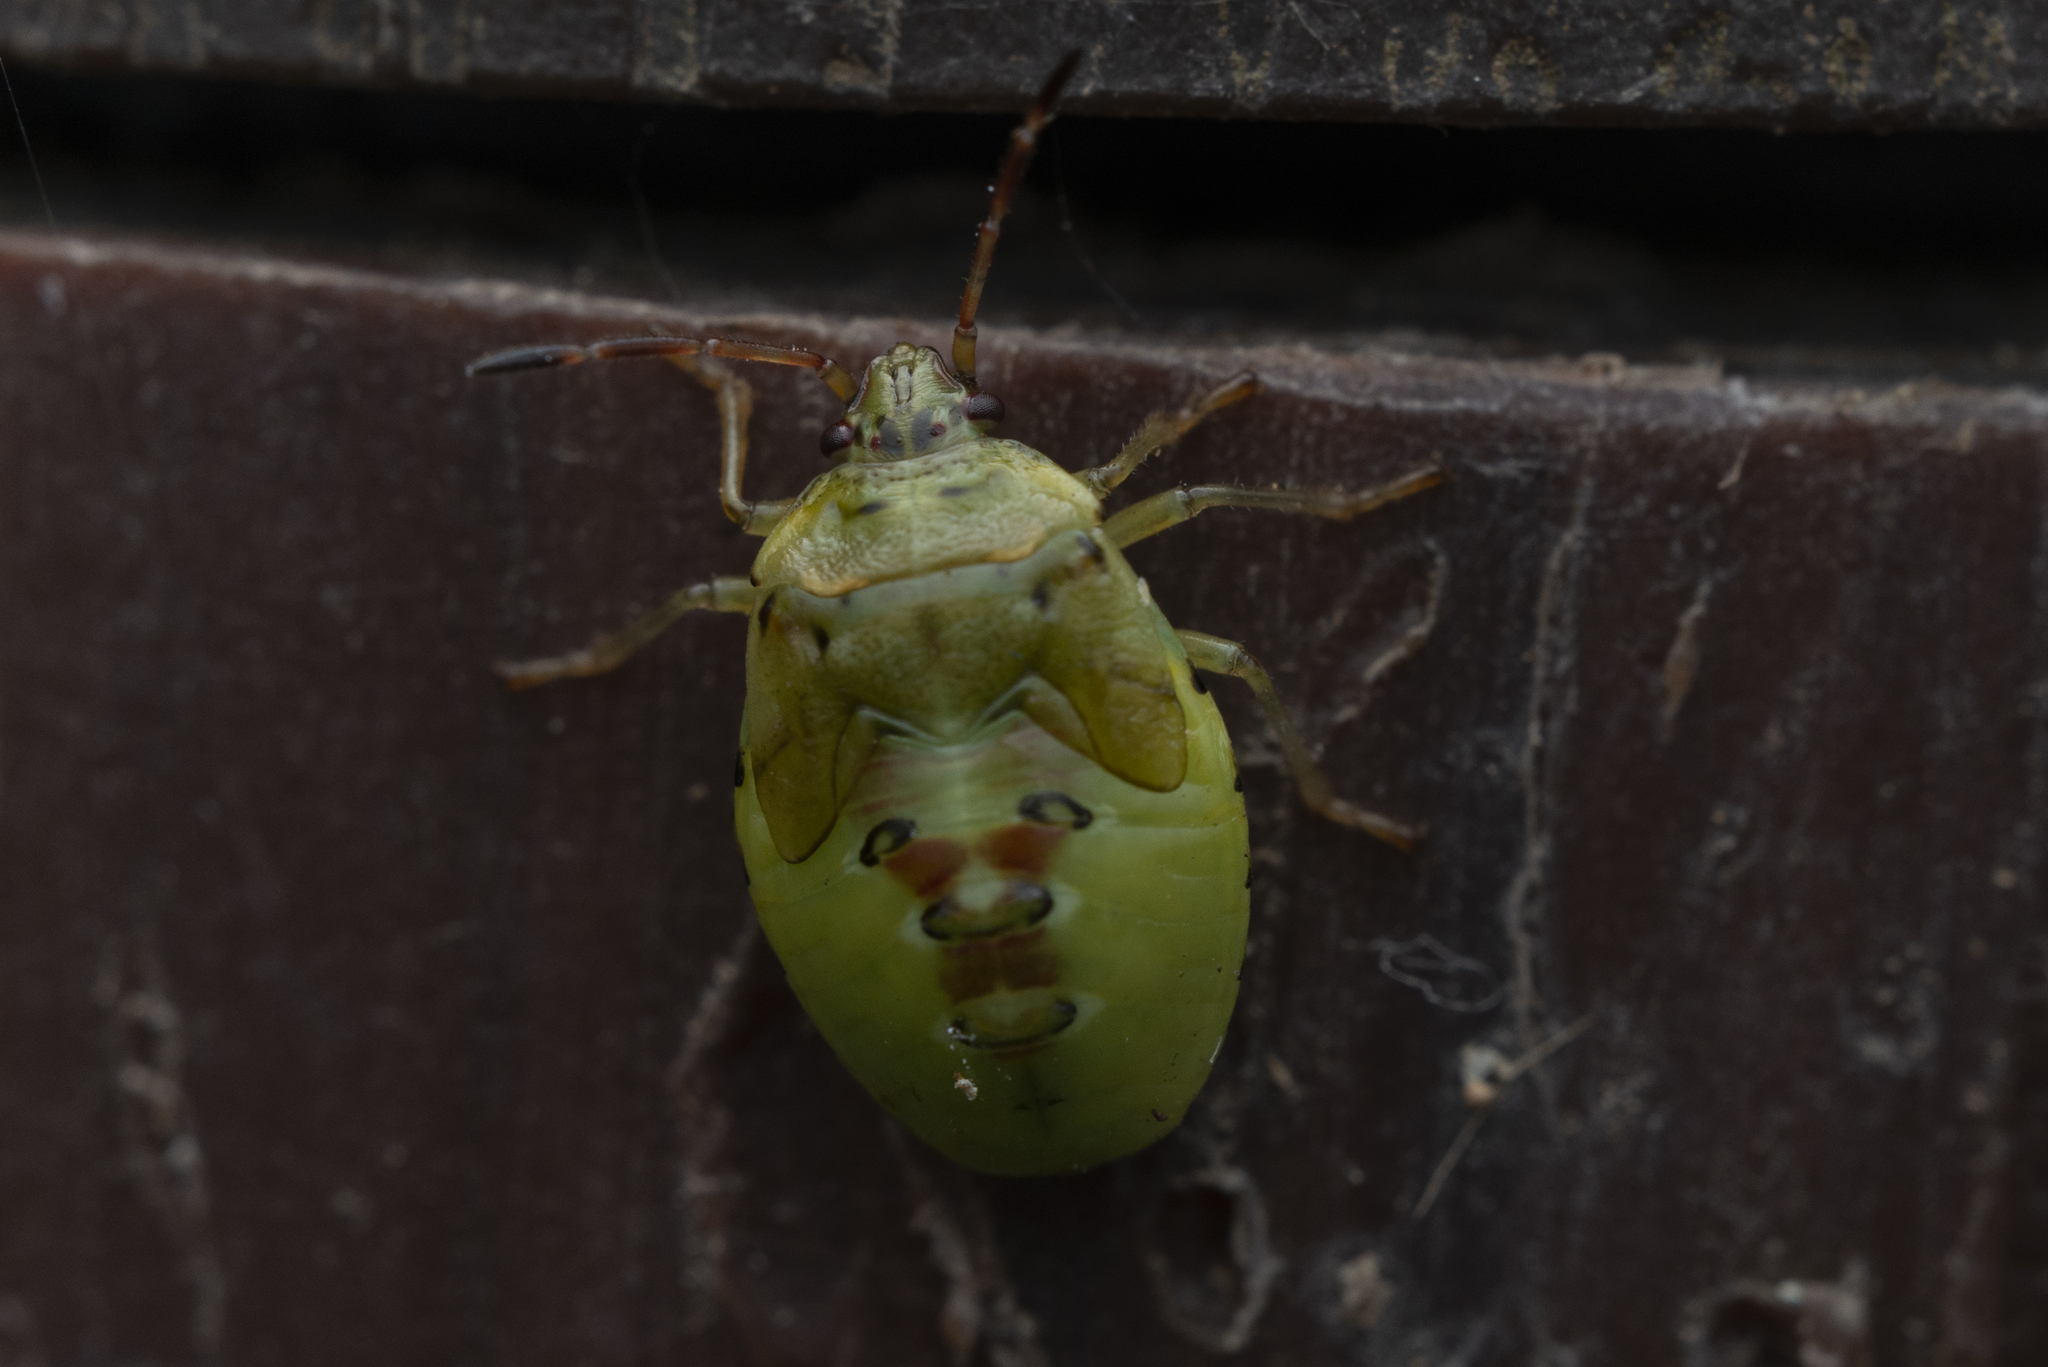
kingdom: Animalia
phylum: Arthropoda
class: Insecta
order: Hemiptera
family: Acanthosomatidae
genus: Elasmostethus
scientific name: Elasmostethus nubilus
